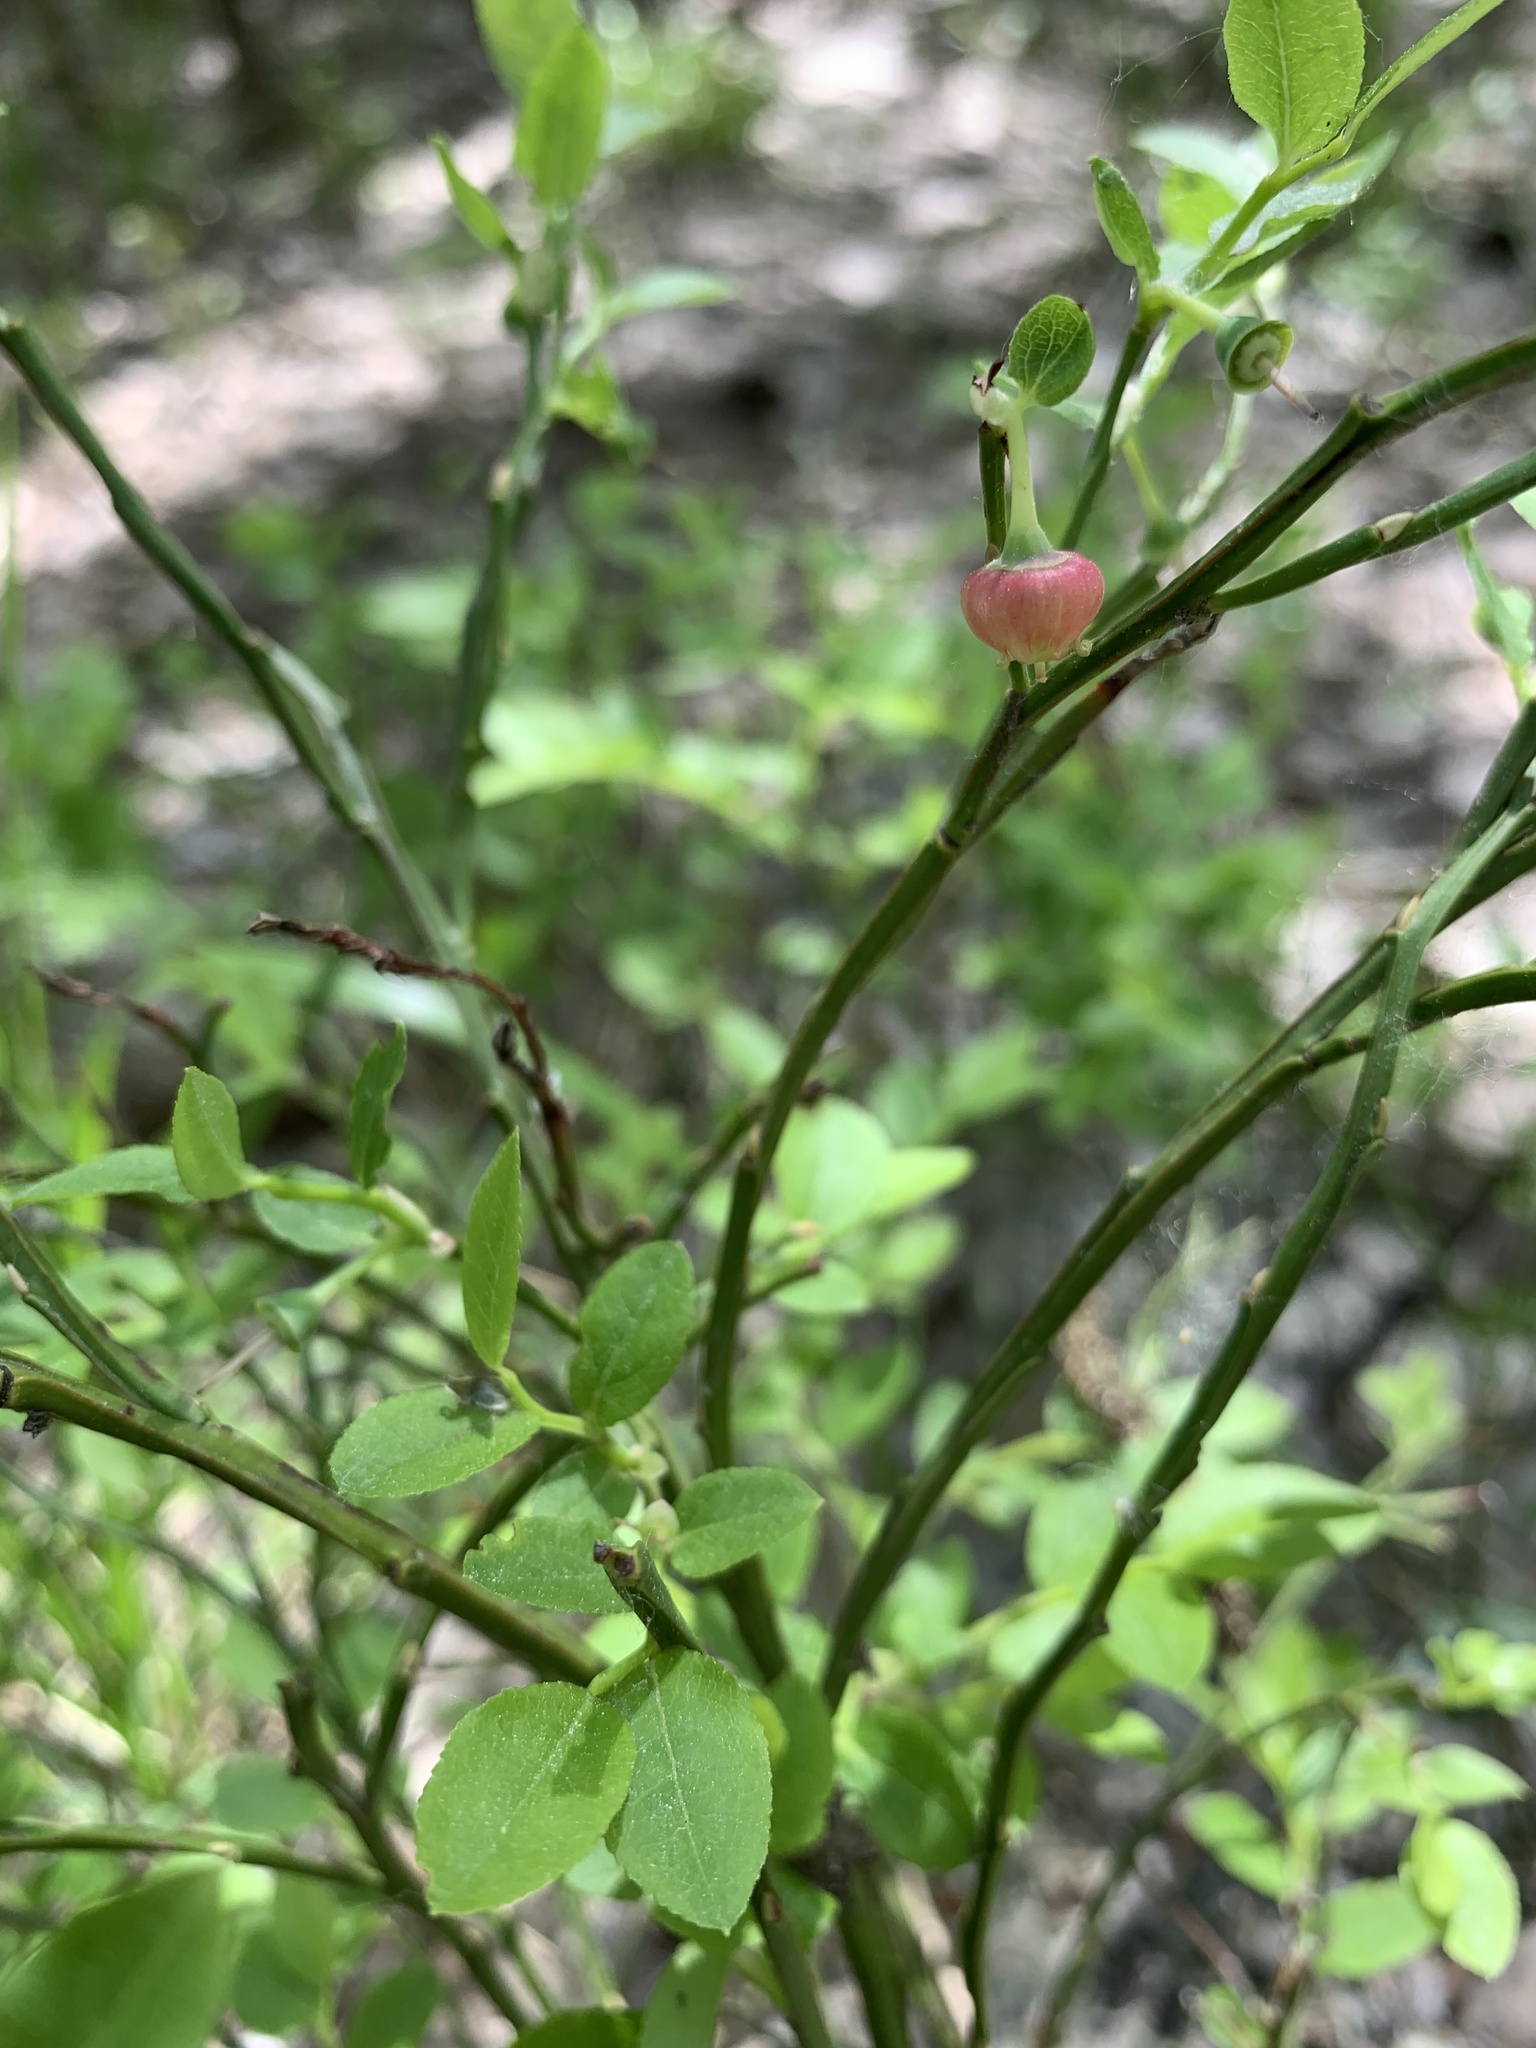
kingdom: Plantae
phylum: Tracheophyta
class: Magnoliopsida
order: Ericales
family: Ericaceae
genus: Vaccinium
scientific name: Vaccinium myrtillus
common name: Bilberry
